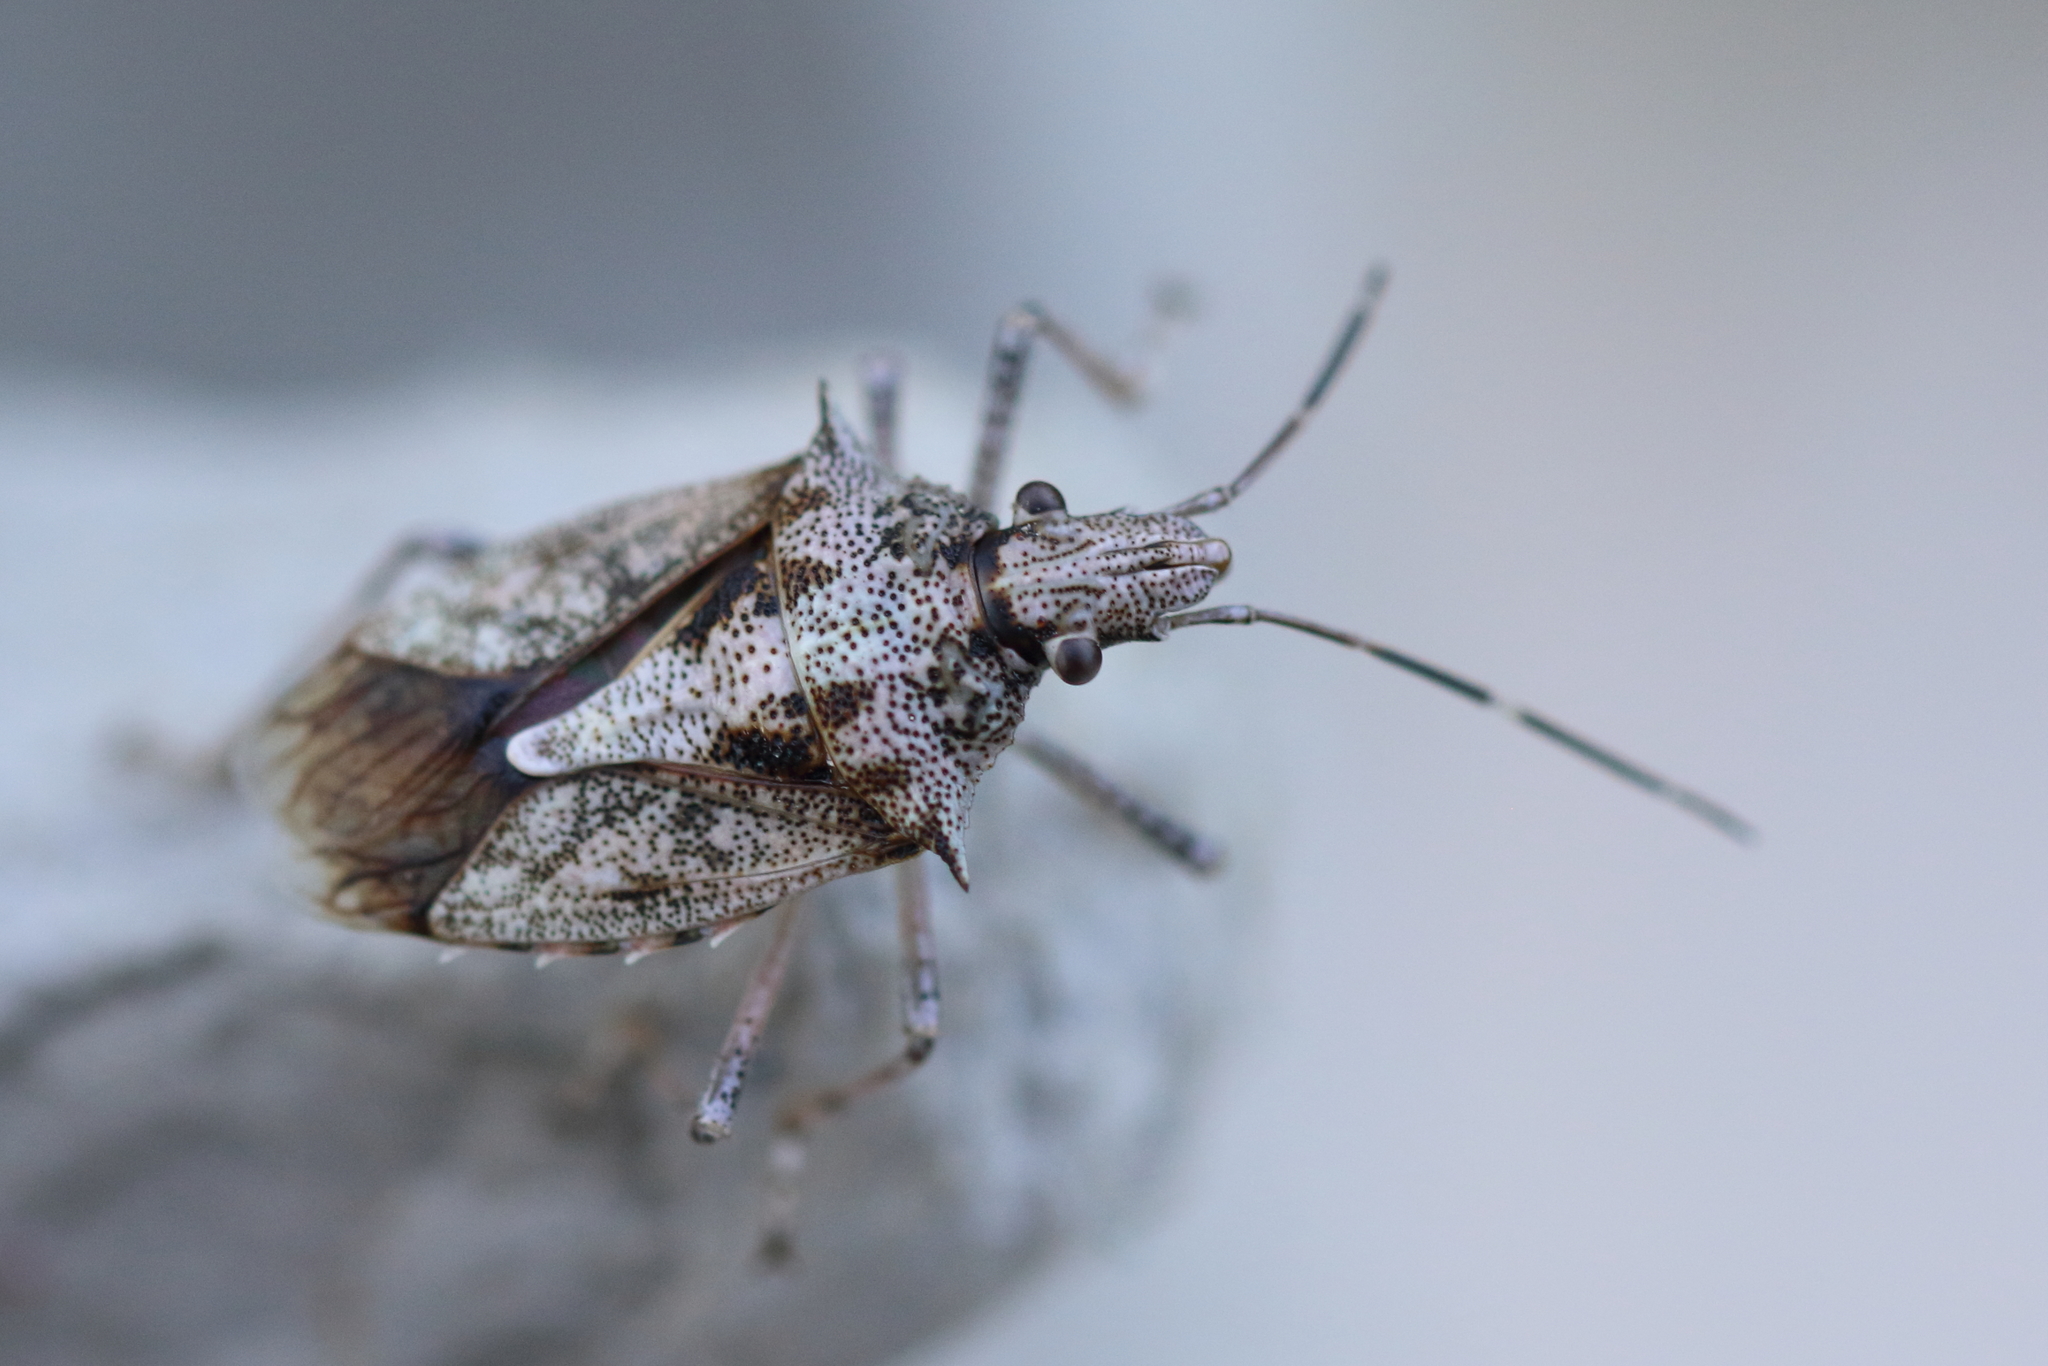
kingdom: Animalia
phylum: Arthropoda
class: Insecta
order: Hemiptera
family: Pentatomidae
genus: Bromocoris
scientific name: Bromocoris
